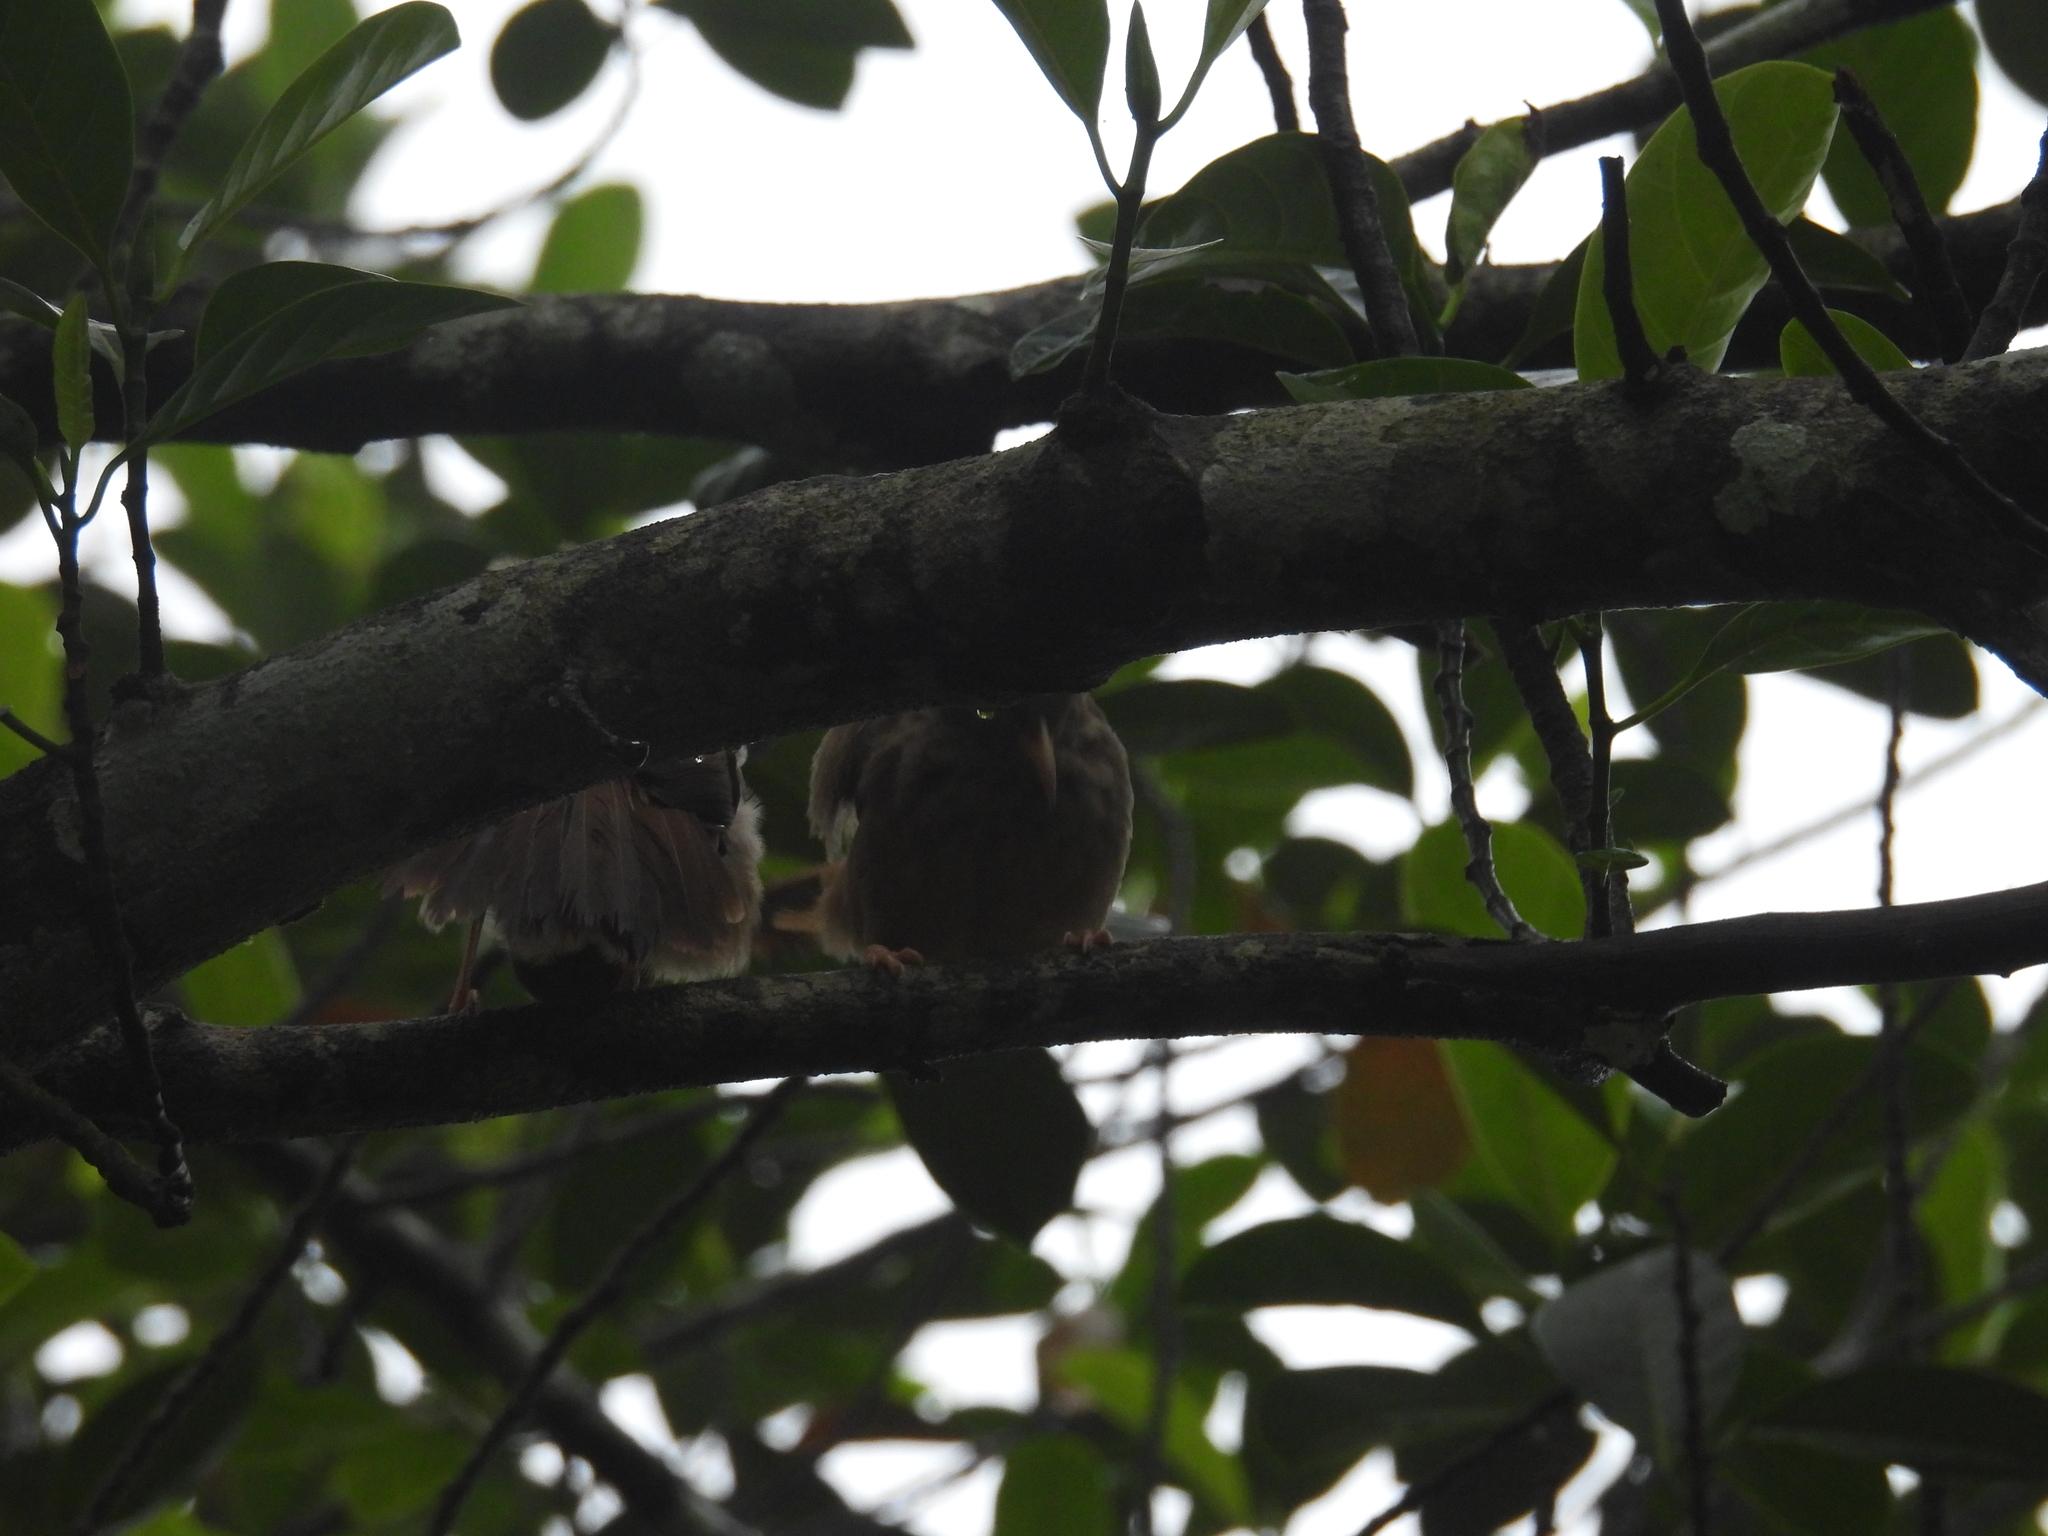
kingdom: Animalia
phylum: Chordata
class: Aves
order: Passeriformes
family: Leiothrichidae
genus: Turdoides
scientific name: Turdoides striata
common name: Jungle babbler
